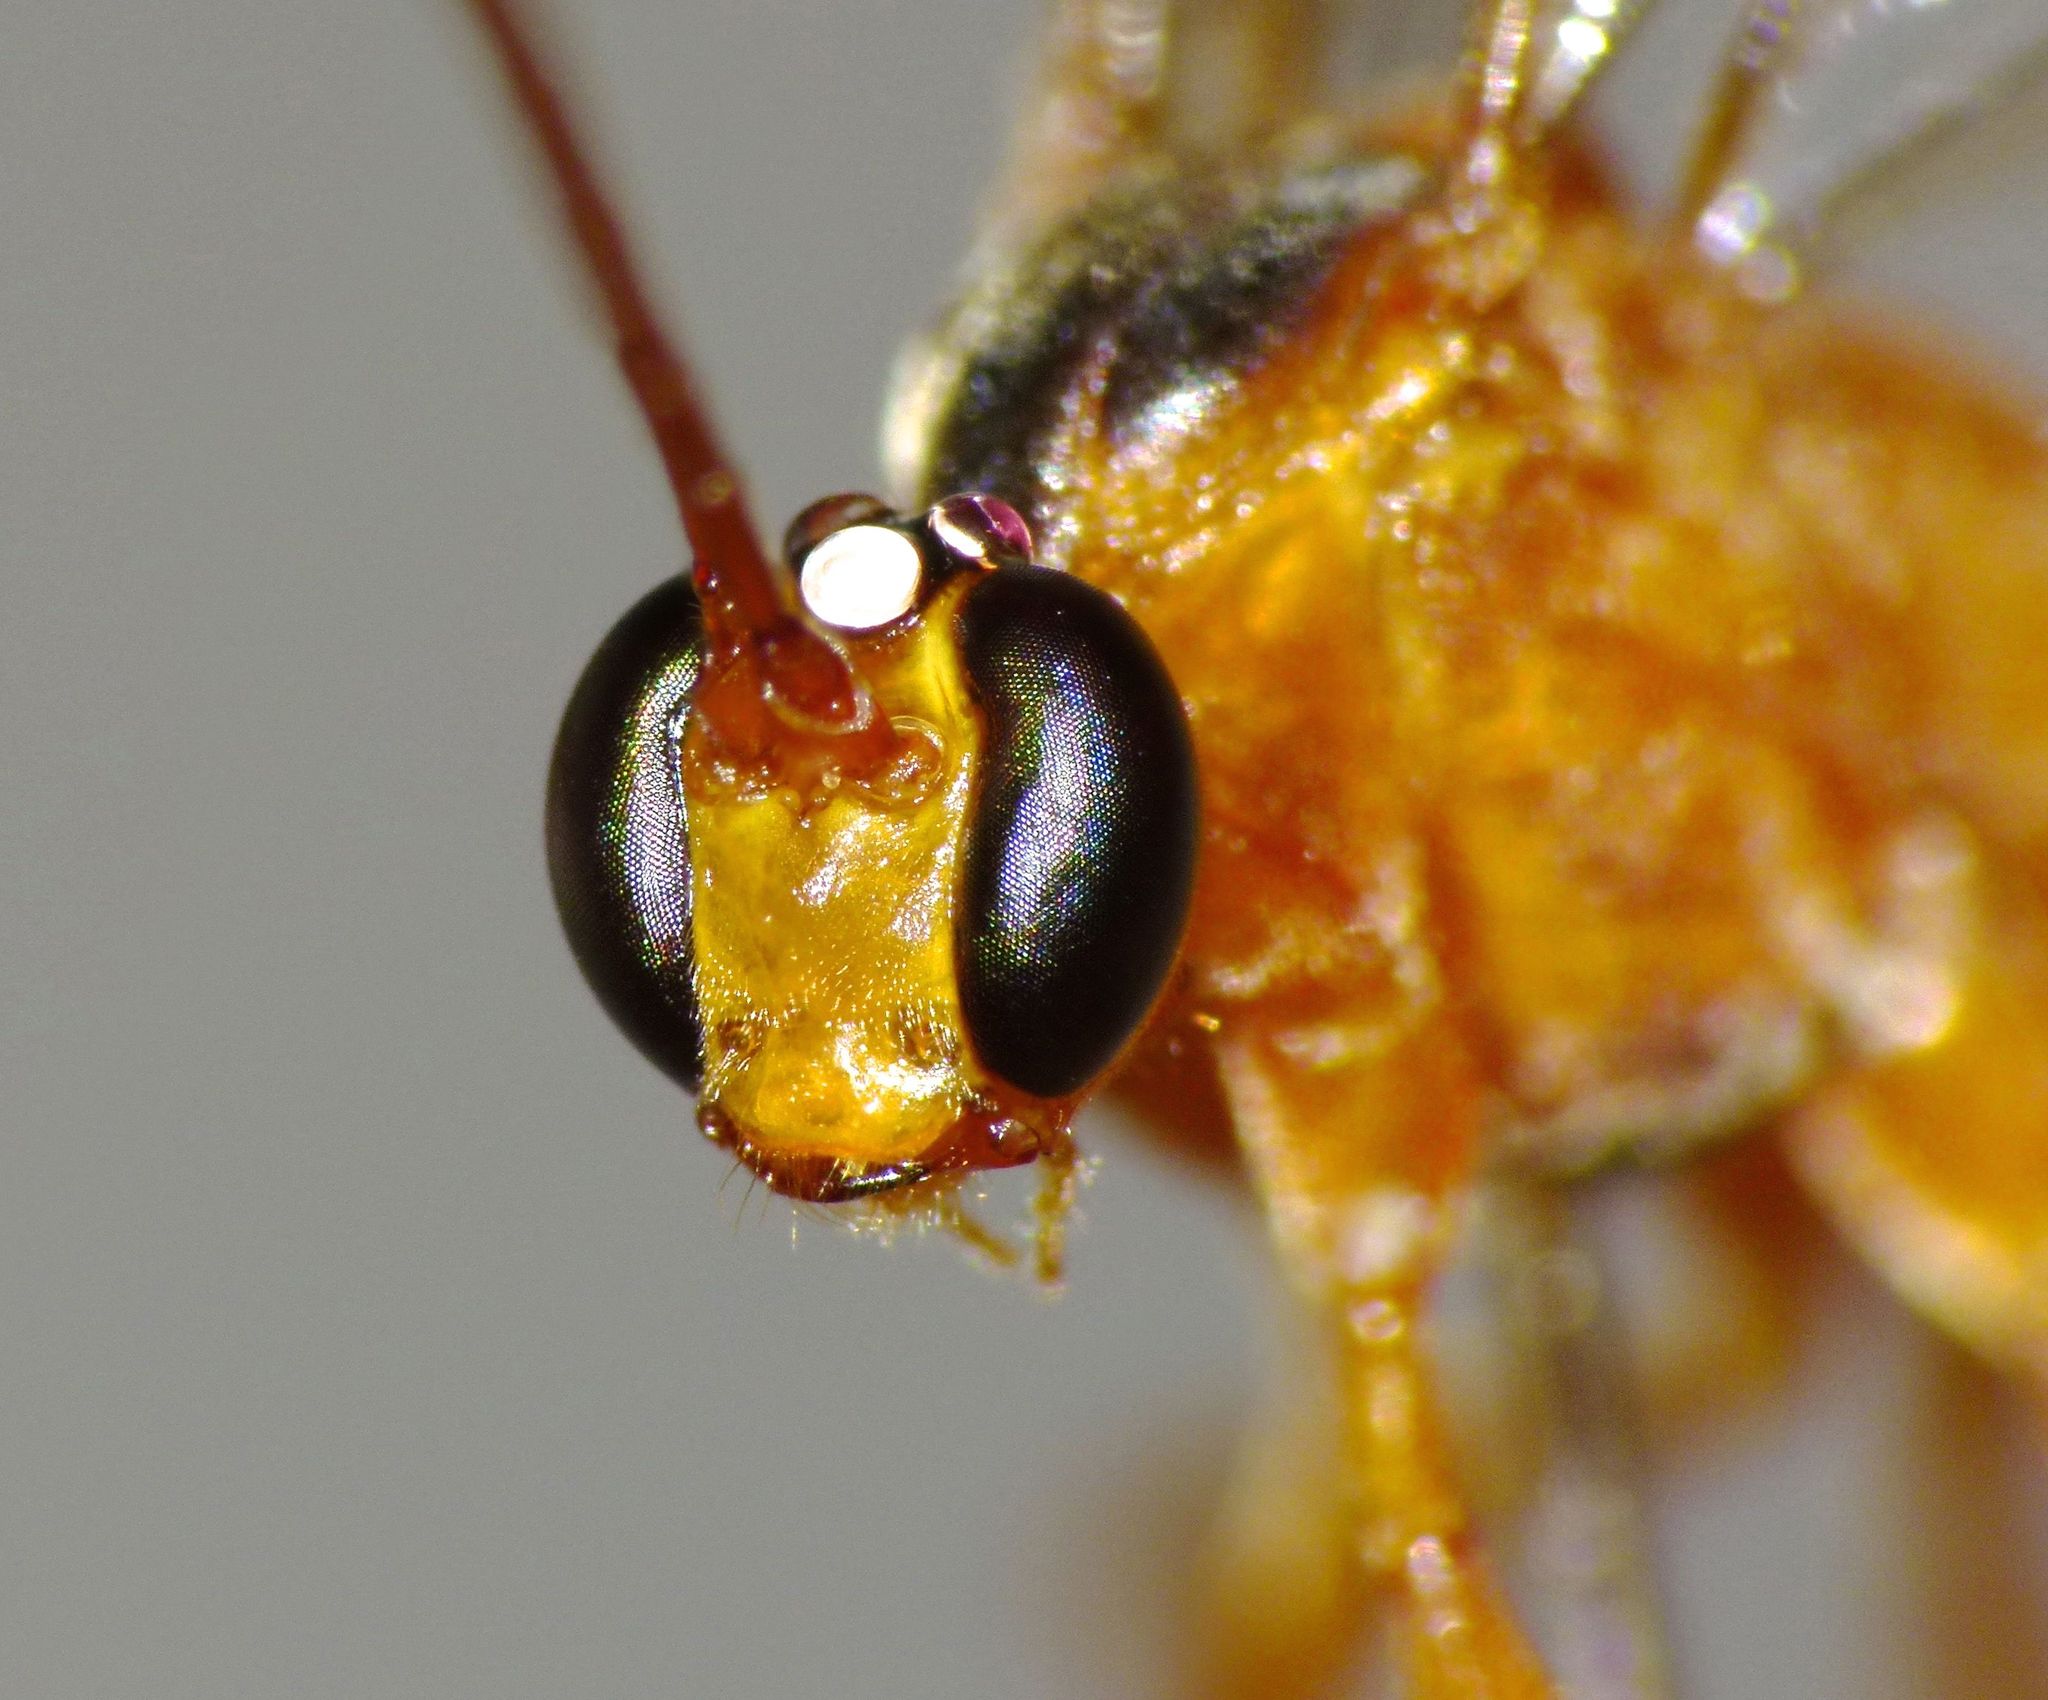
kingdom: Animalia
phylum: Arthropoda
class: Insecta
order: Hymenoptera
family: Ichneumonidae
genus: Netelia
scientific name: Netelia ephippiata
